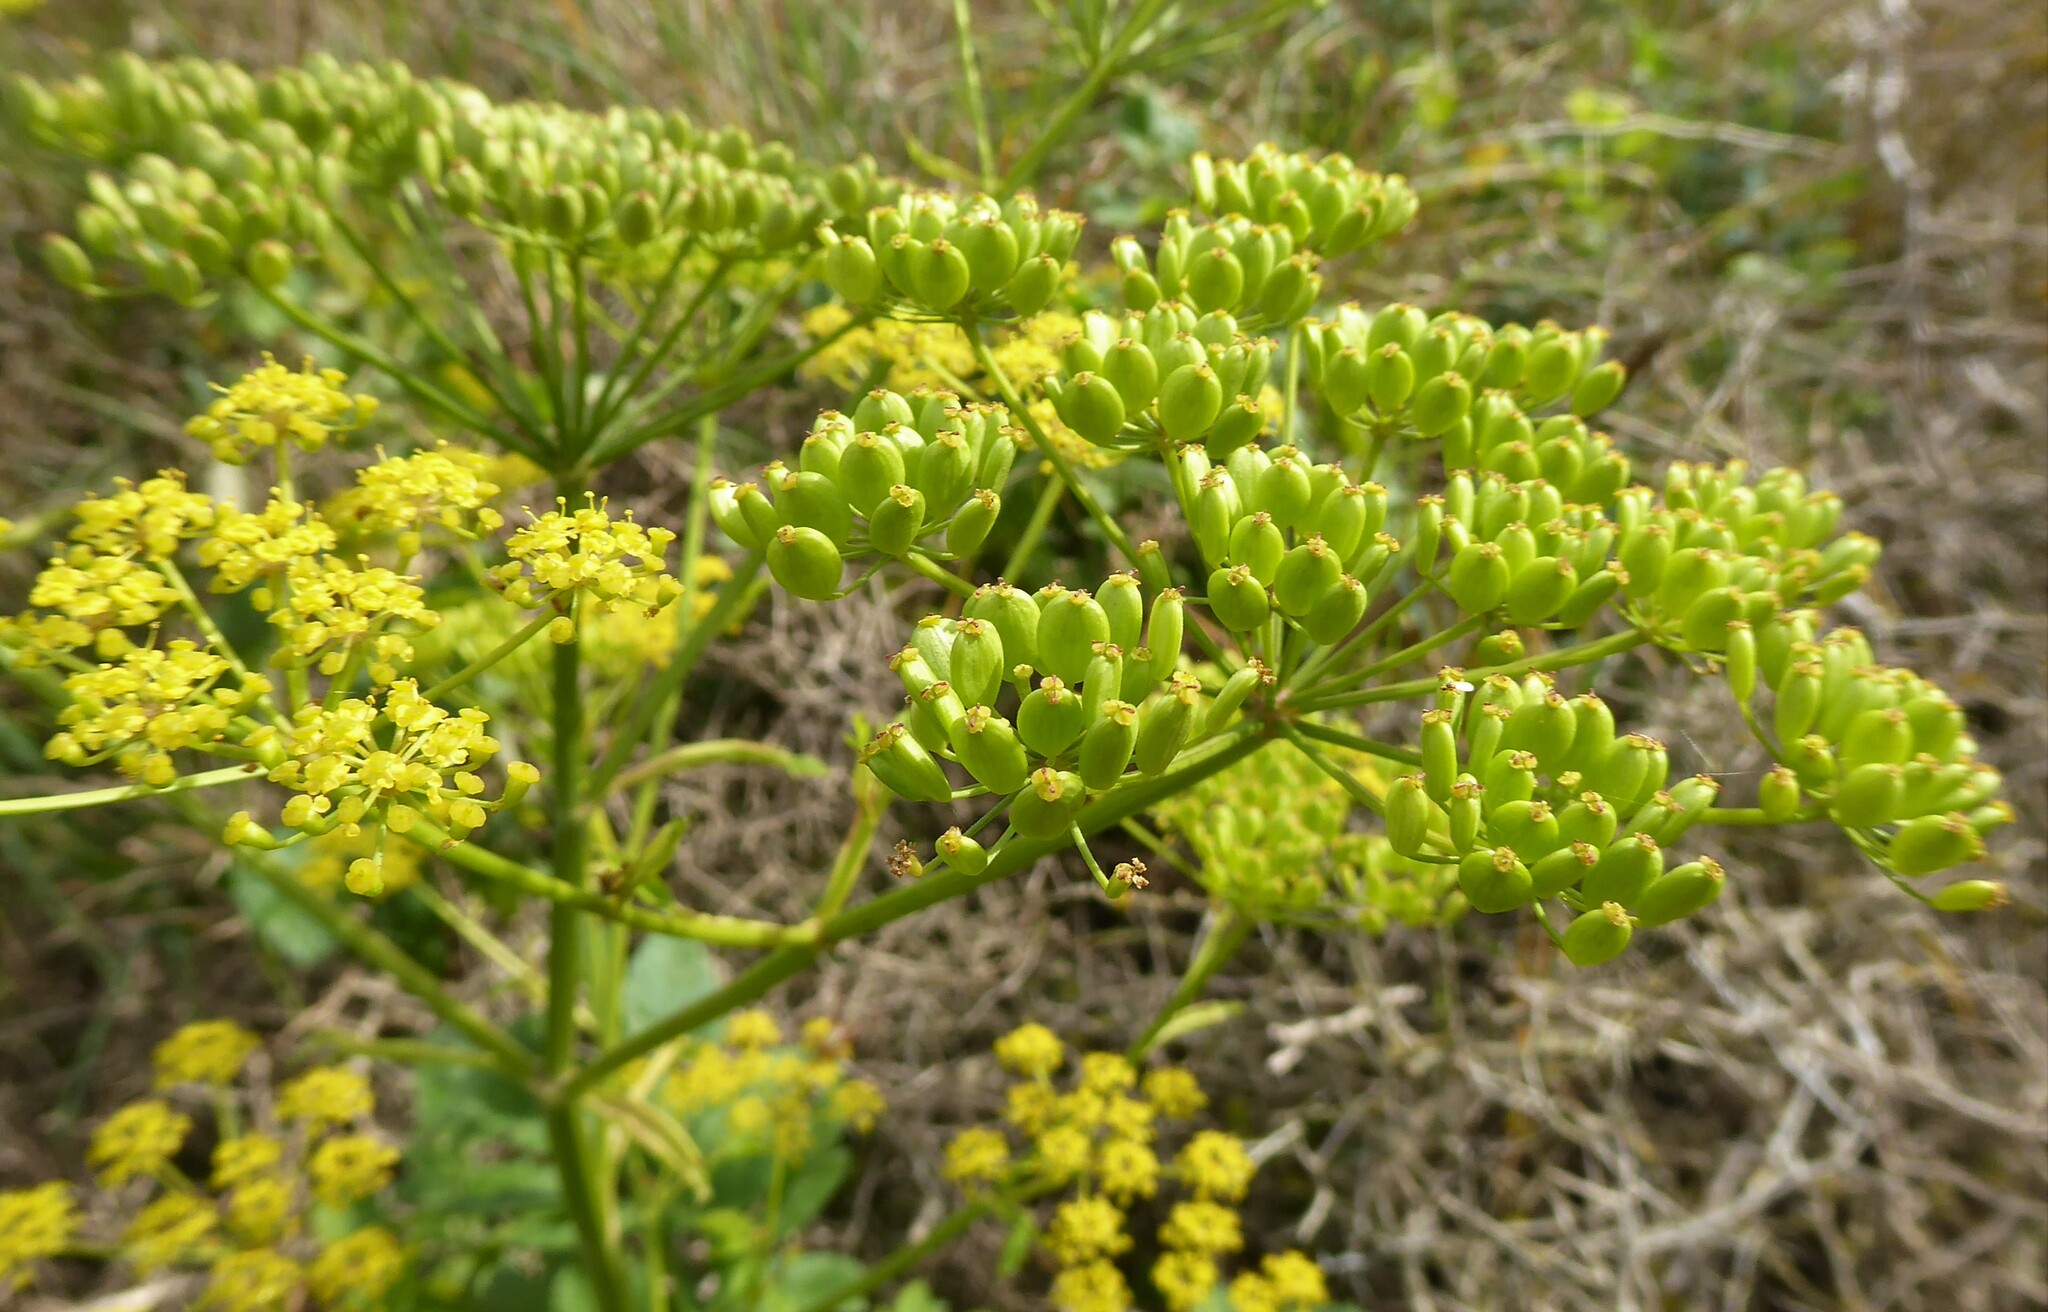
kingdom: Plantae
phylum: Tracheophyta
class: Magnoliopsida
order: Apiales
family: Apiaceae
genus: Pastinaca
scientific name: Pastinaca sativa
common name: Wild parsnip
